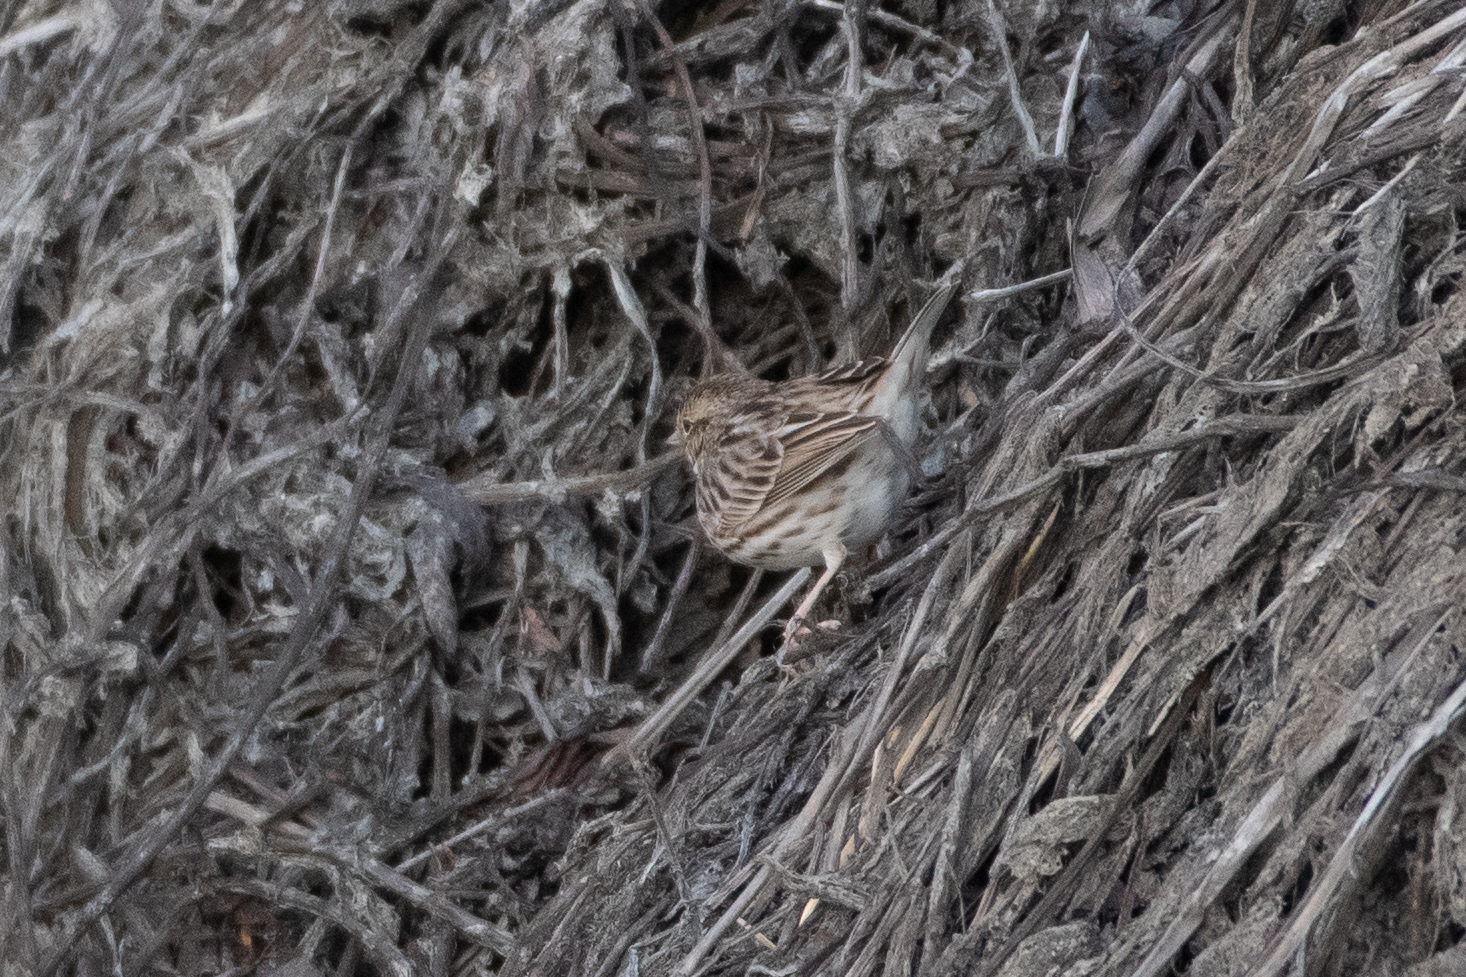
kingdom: Animalia
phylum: Chordata
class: Aves
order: Passeriformes
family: Passerellidae
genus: Passerculus
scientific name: Passerculus sandwichensis
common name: Savannah sparrow
